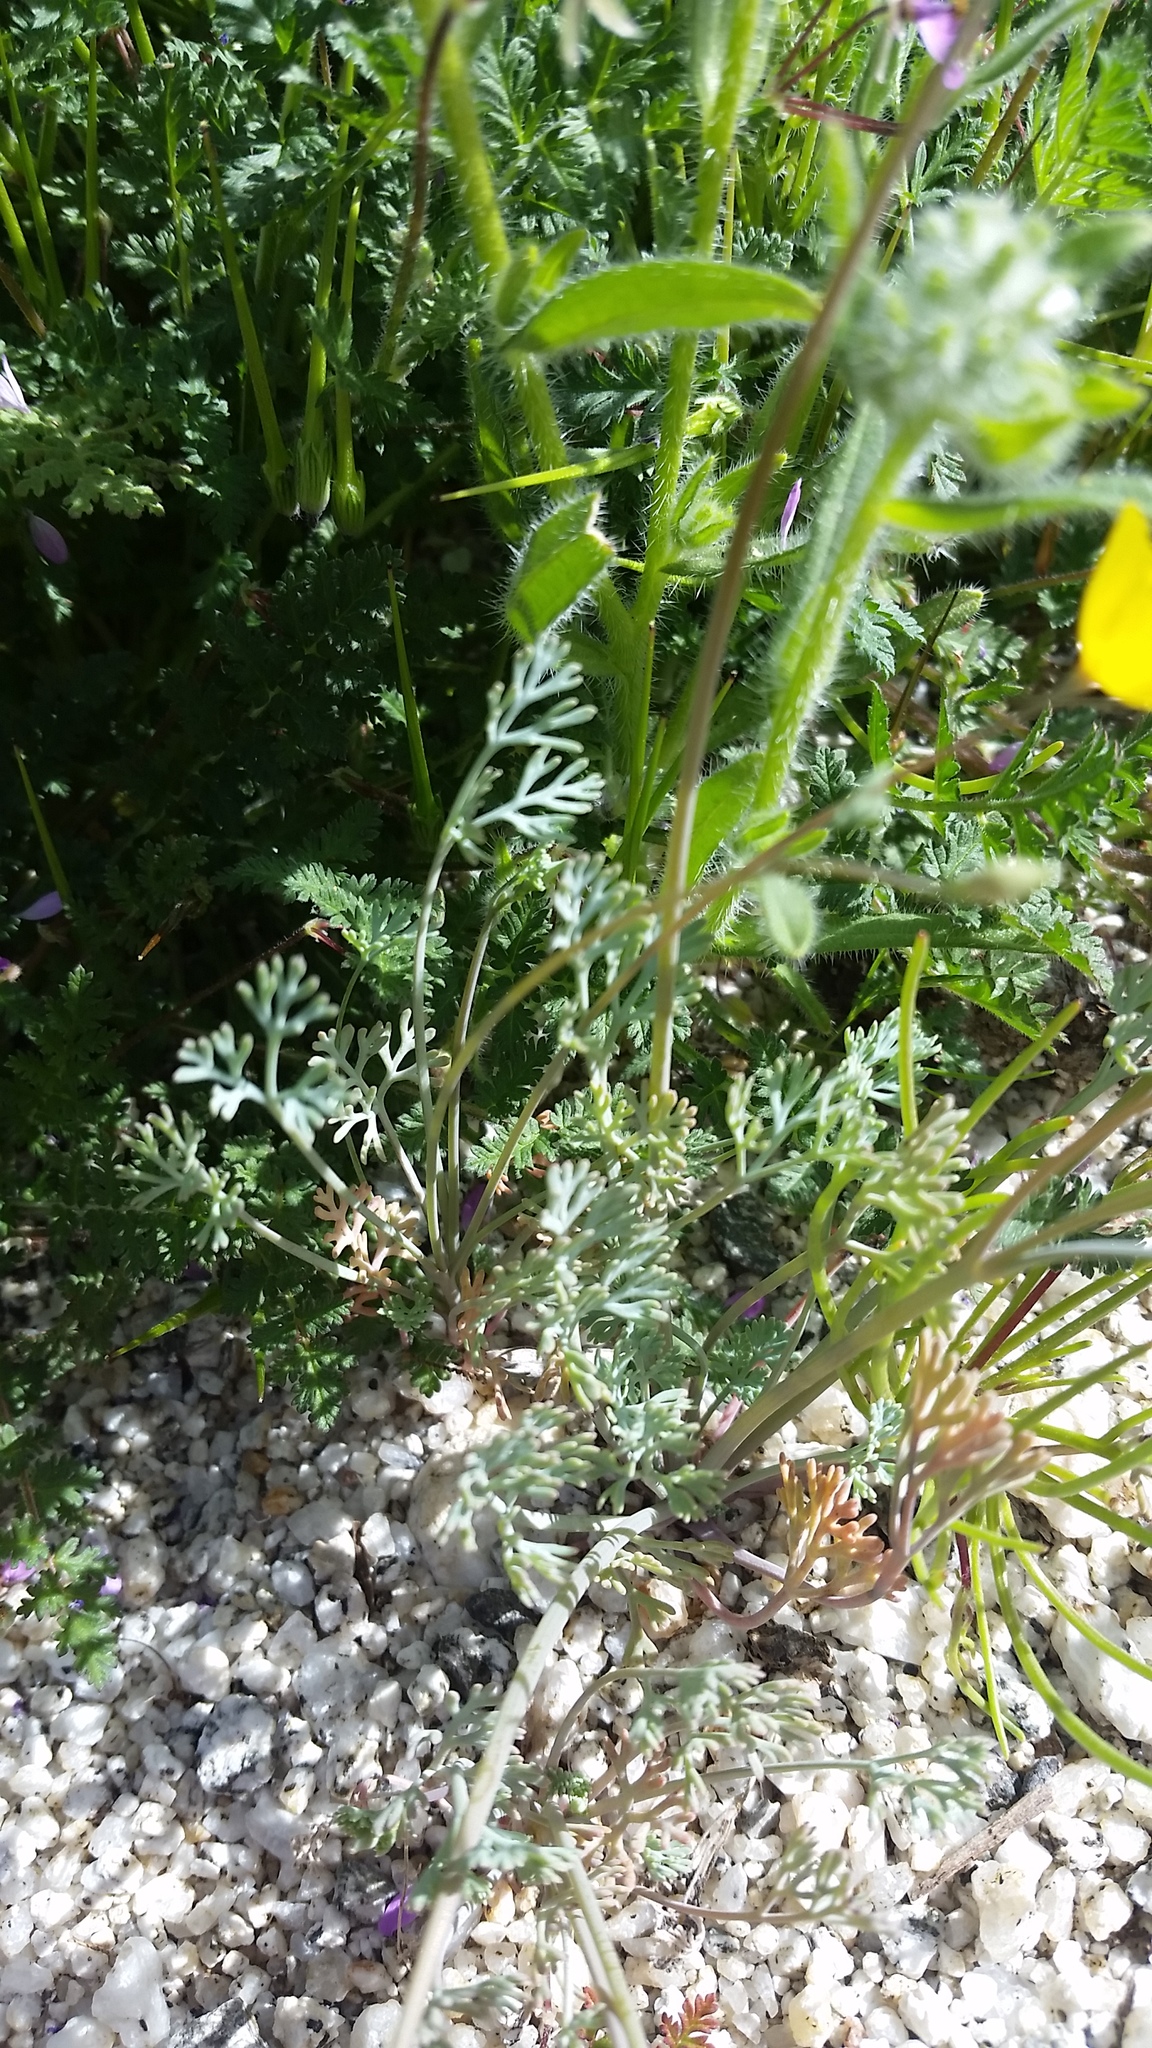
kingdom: Plantae
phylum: Tracheophyta
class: Magnoliopsida
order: Ranunculales
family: Papaveraceae
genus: Eschscholzia
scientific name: Eschscholzia minutiflora
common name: Small-flower california-poppy
